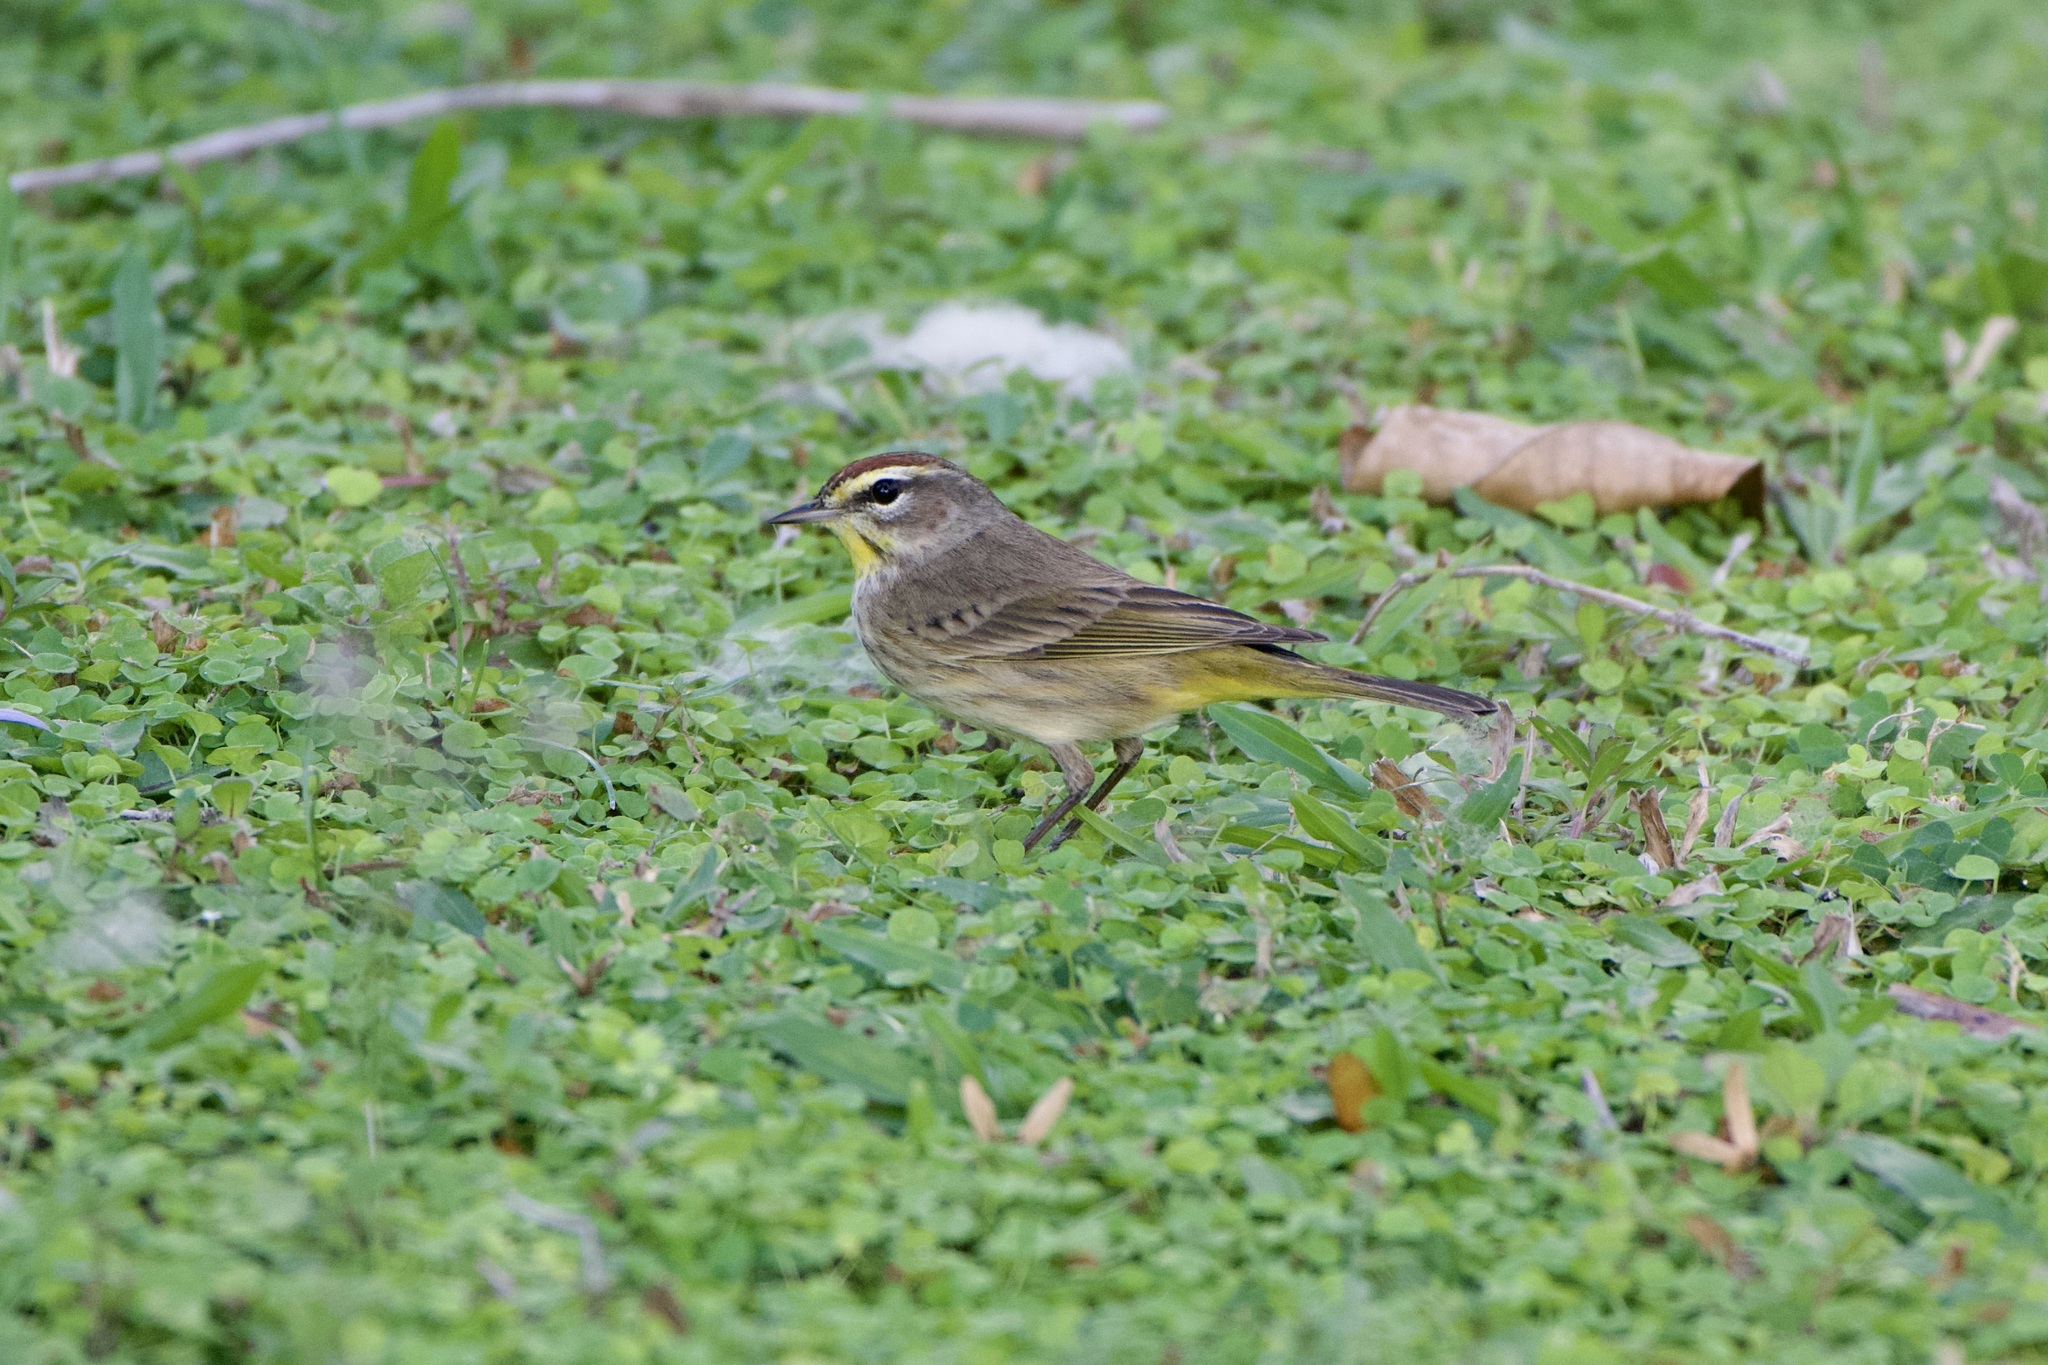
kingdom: Animalia
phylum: Chordata
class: Aves
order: Passeriformes
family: Parulidae
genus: Setophaga
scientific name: Setophaga palmarum
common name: Palm warbler
